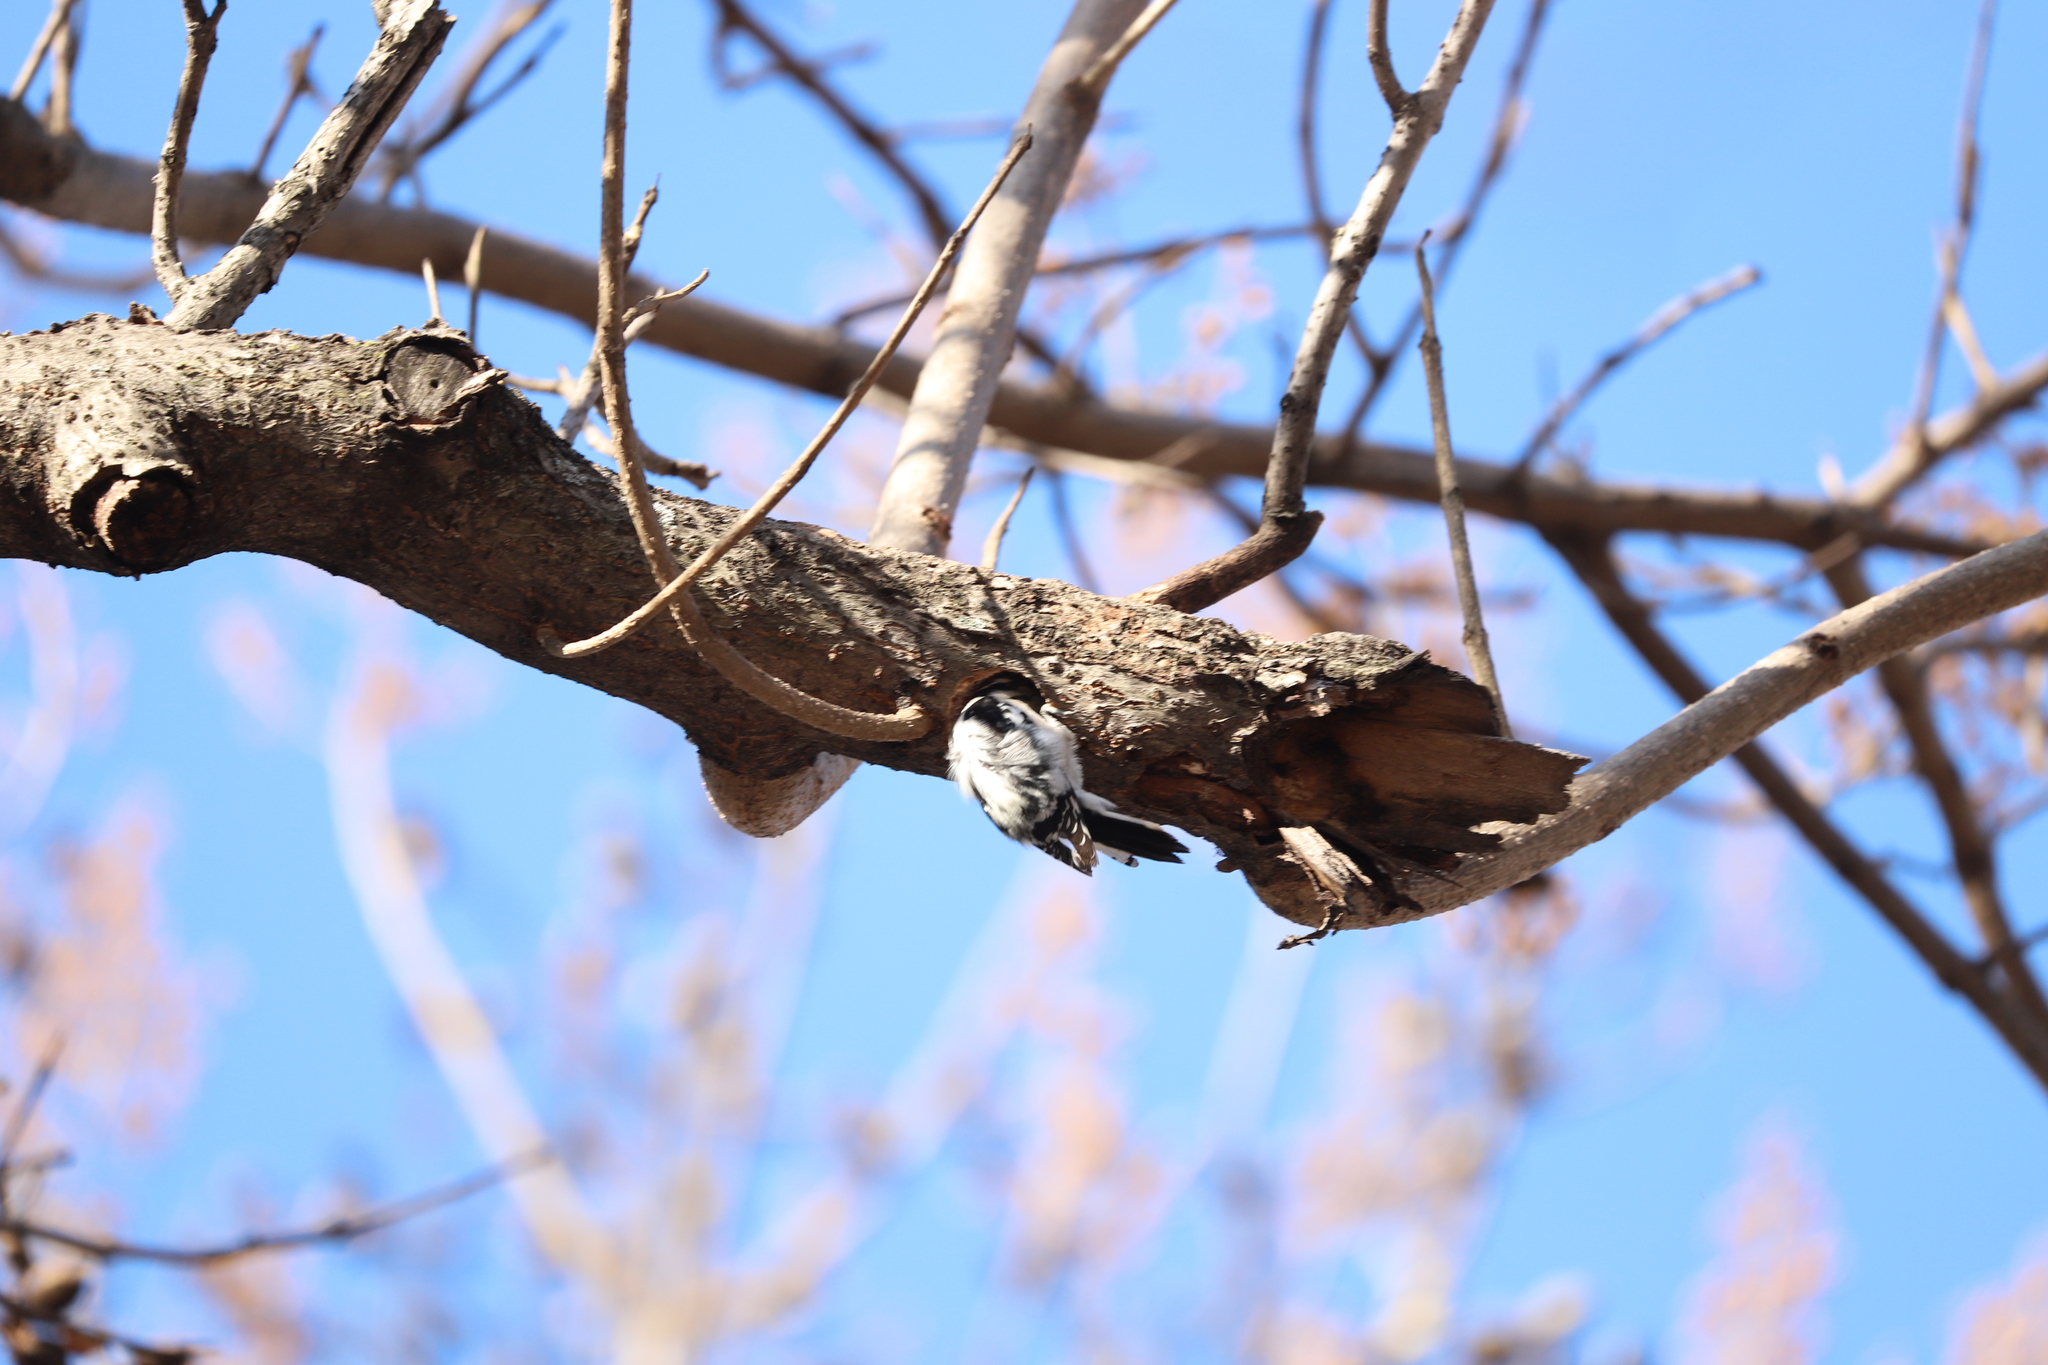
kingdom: Animalia
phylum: Chordata
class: Aves
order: Piciformes
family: Picidae
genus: Dryobates
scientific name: Dryobates pubescens
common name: Downy woodpecker
